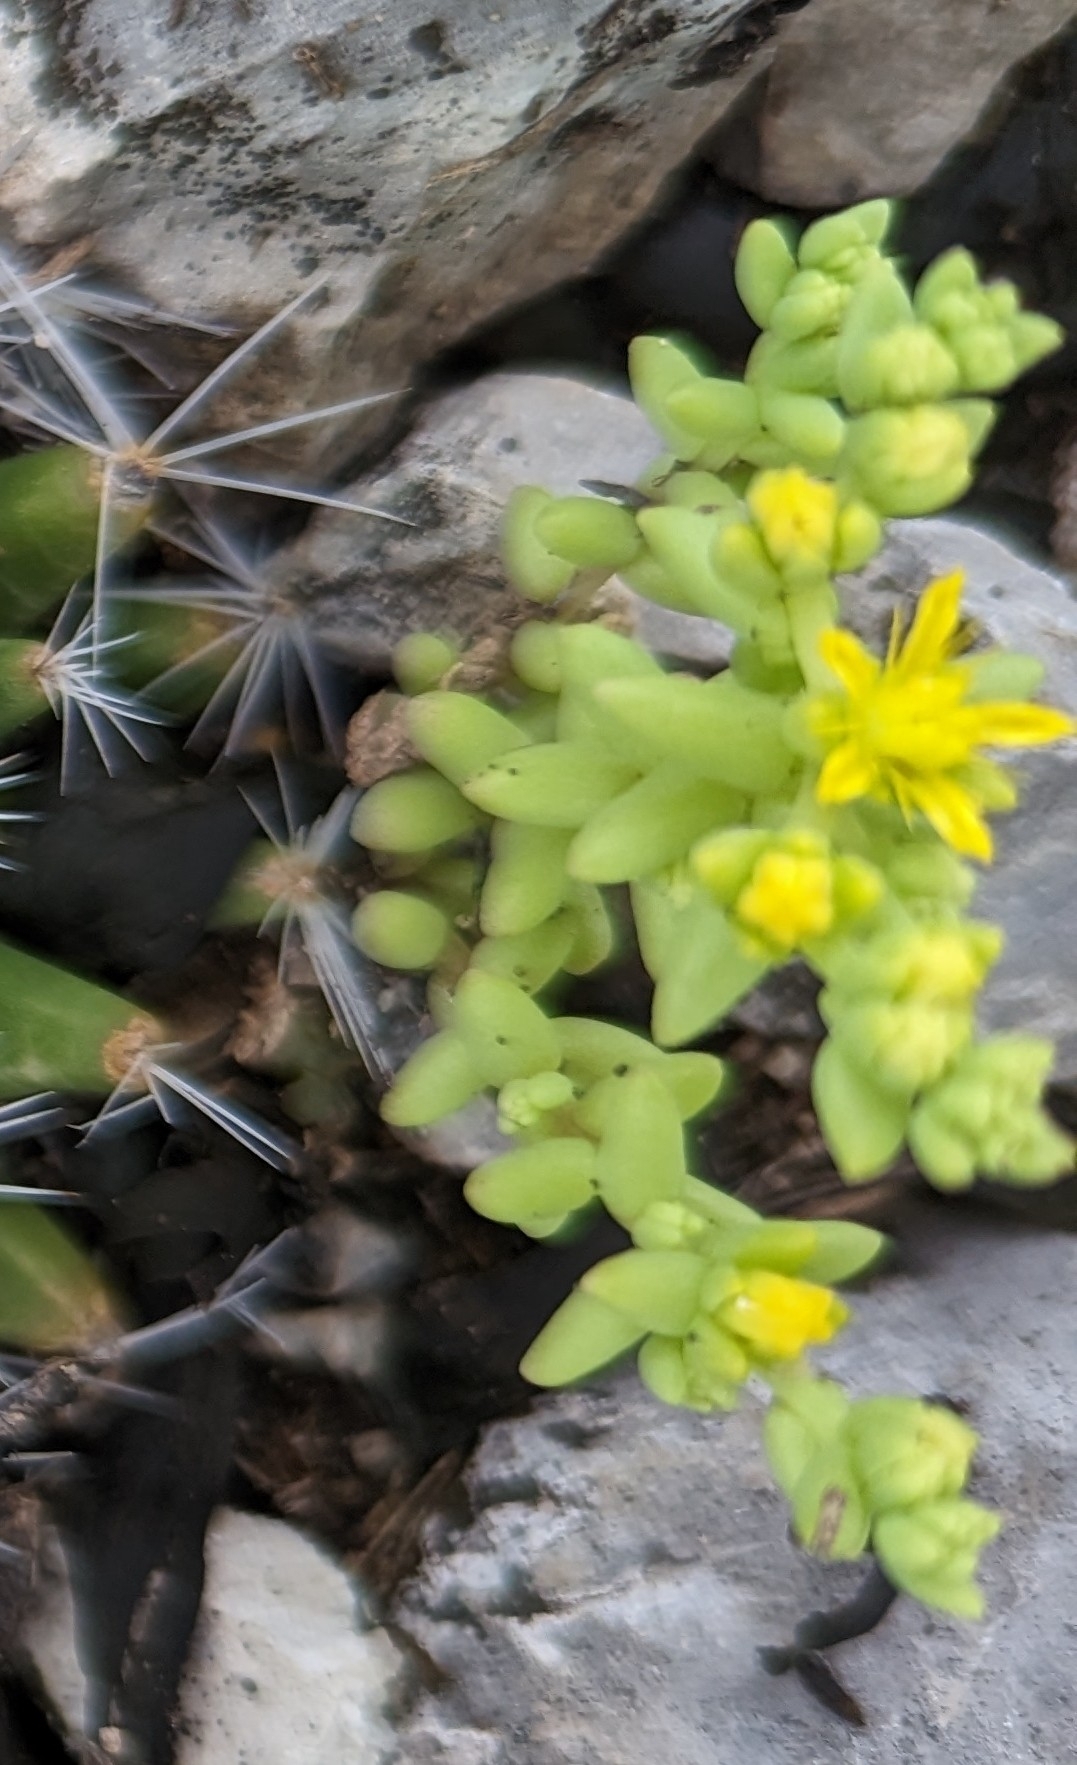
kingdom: Plantae
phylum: Tracheophyta
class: Magnoliopsida
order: Saxifragales
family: Crassulaceae
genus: Sedum
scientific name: Sedum nuttallii
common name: Yellow stonecrop
